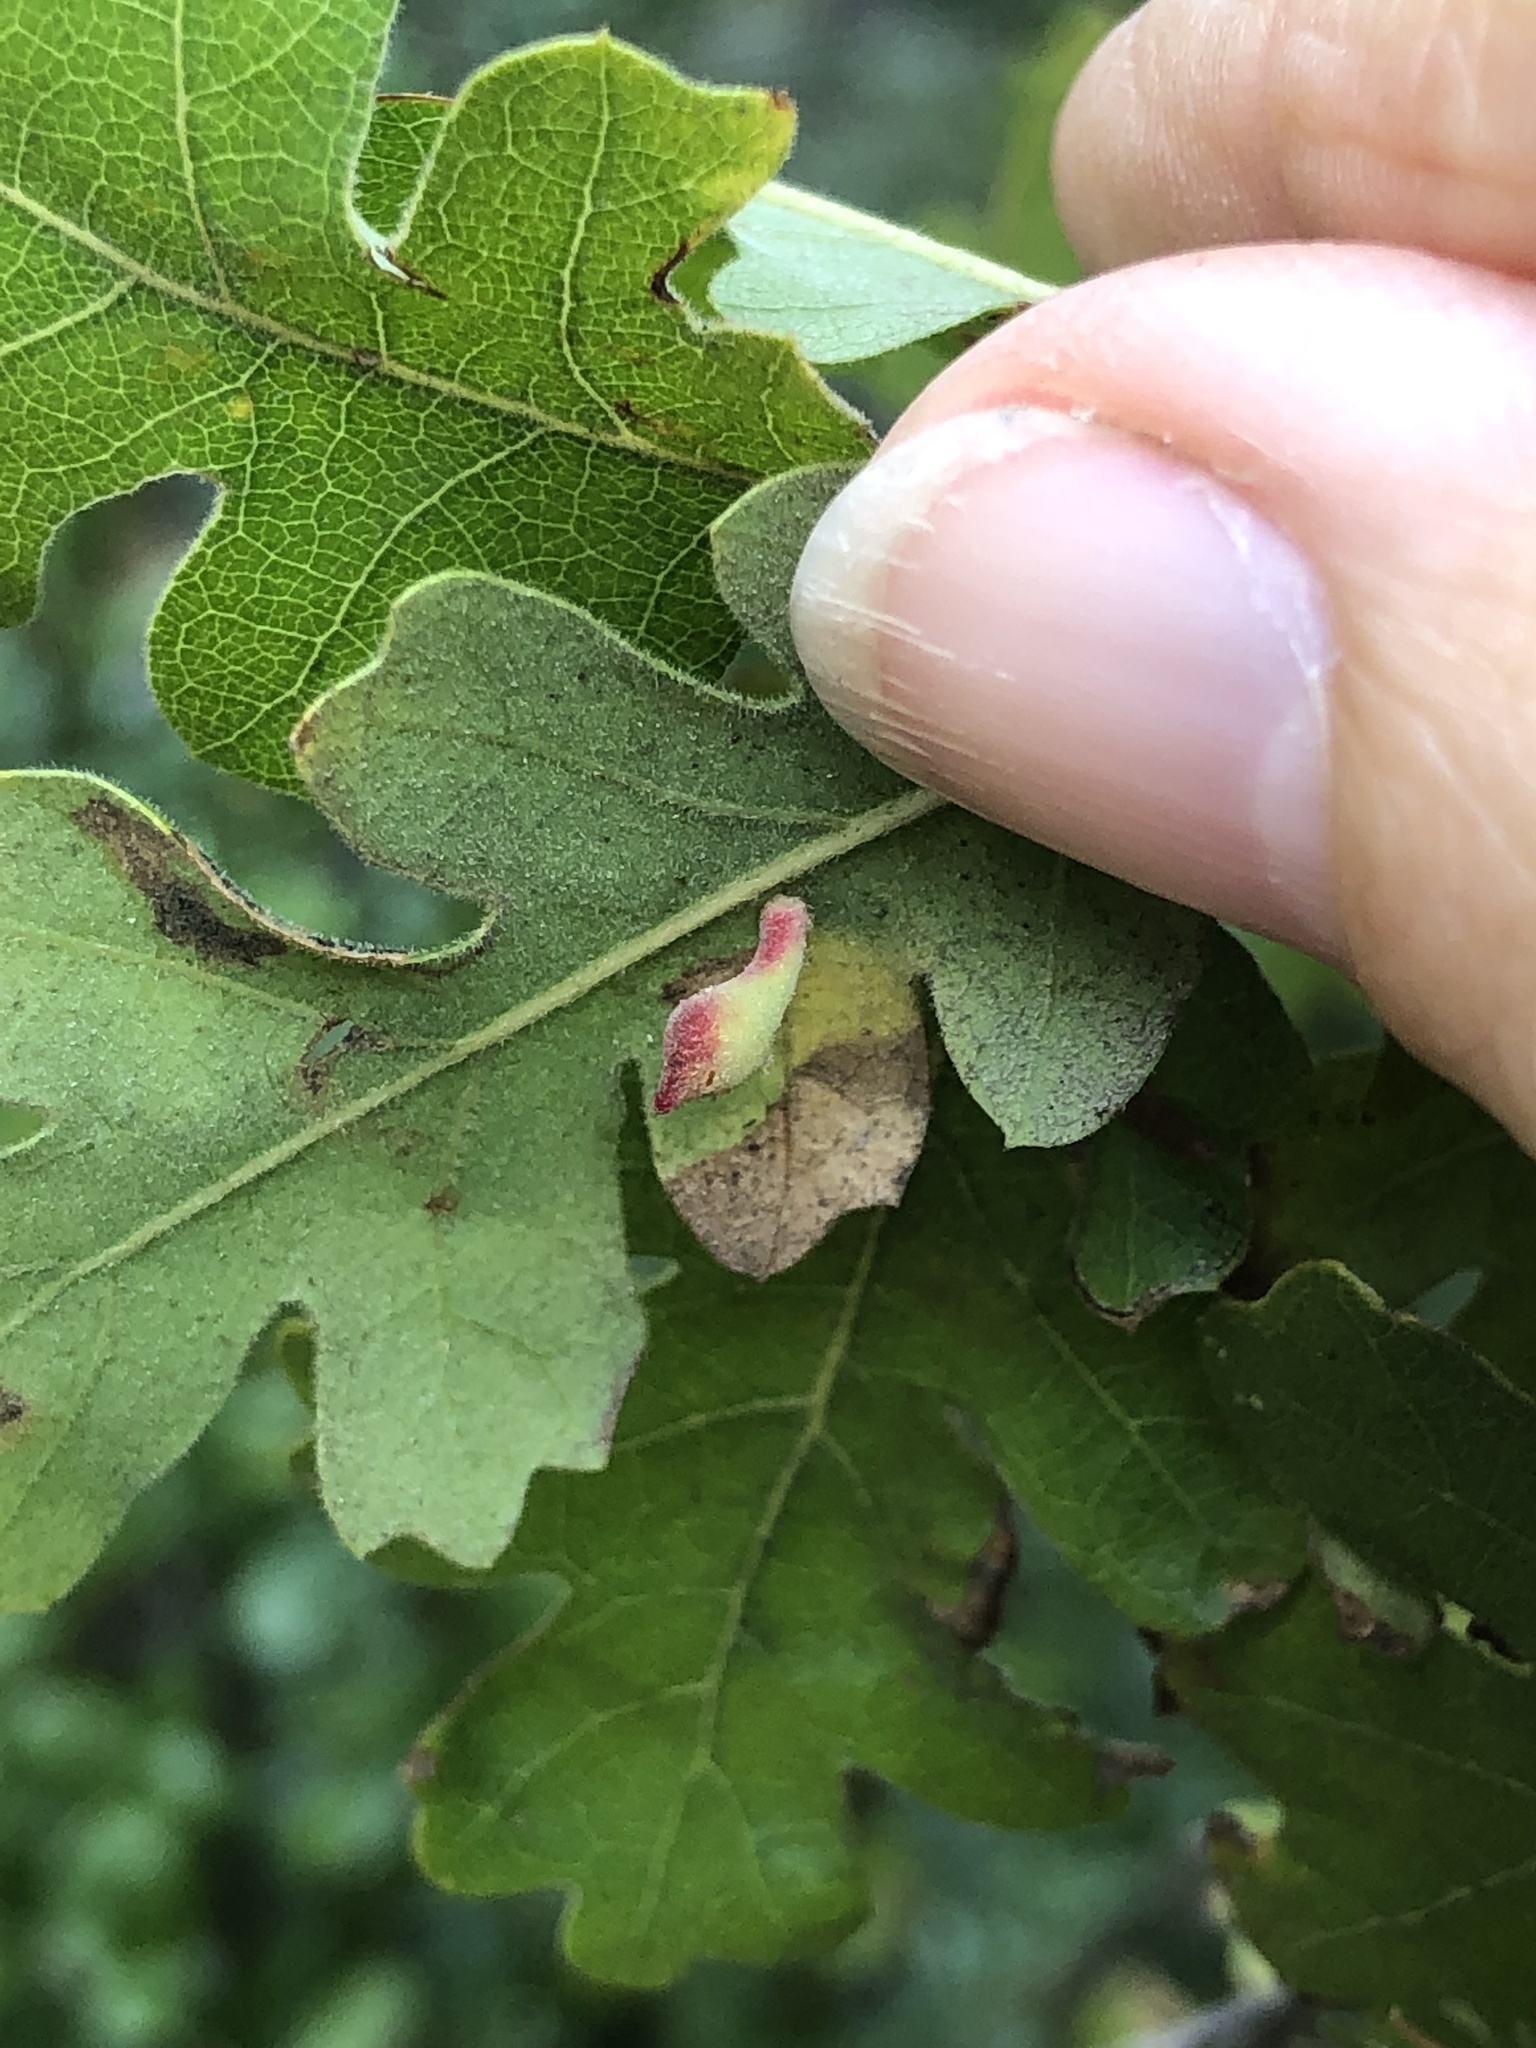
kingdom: Animalia
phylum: Arthropoda
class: Insecta
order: Hymenoptera
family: Cynipidae
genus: Atrusca
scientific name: Atrusca
